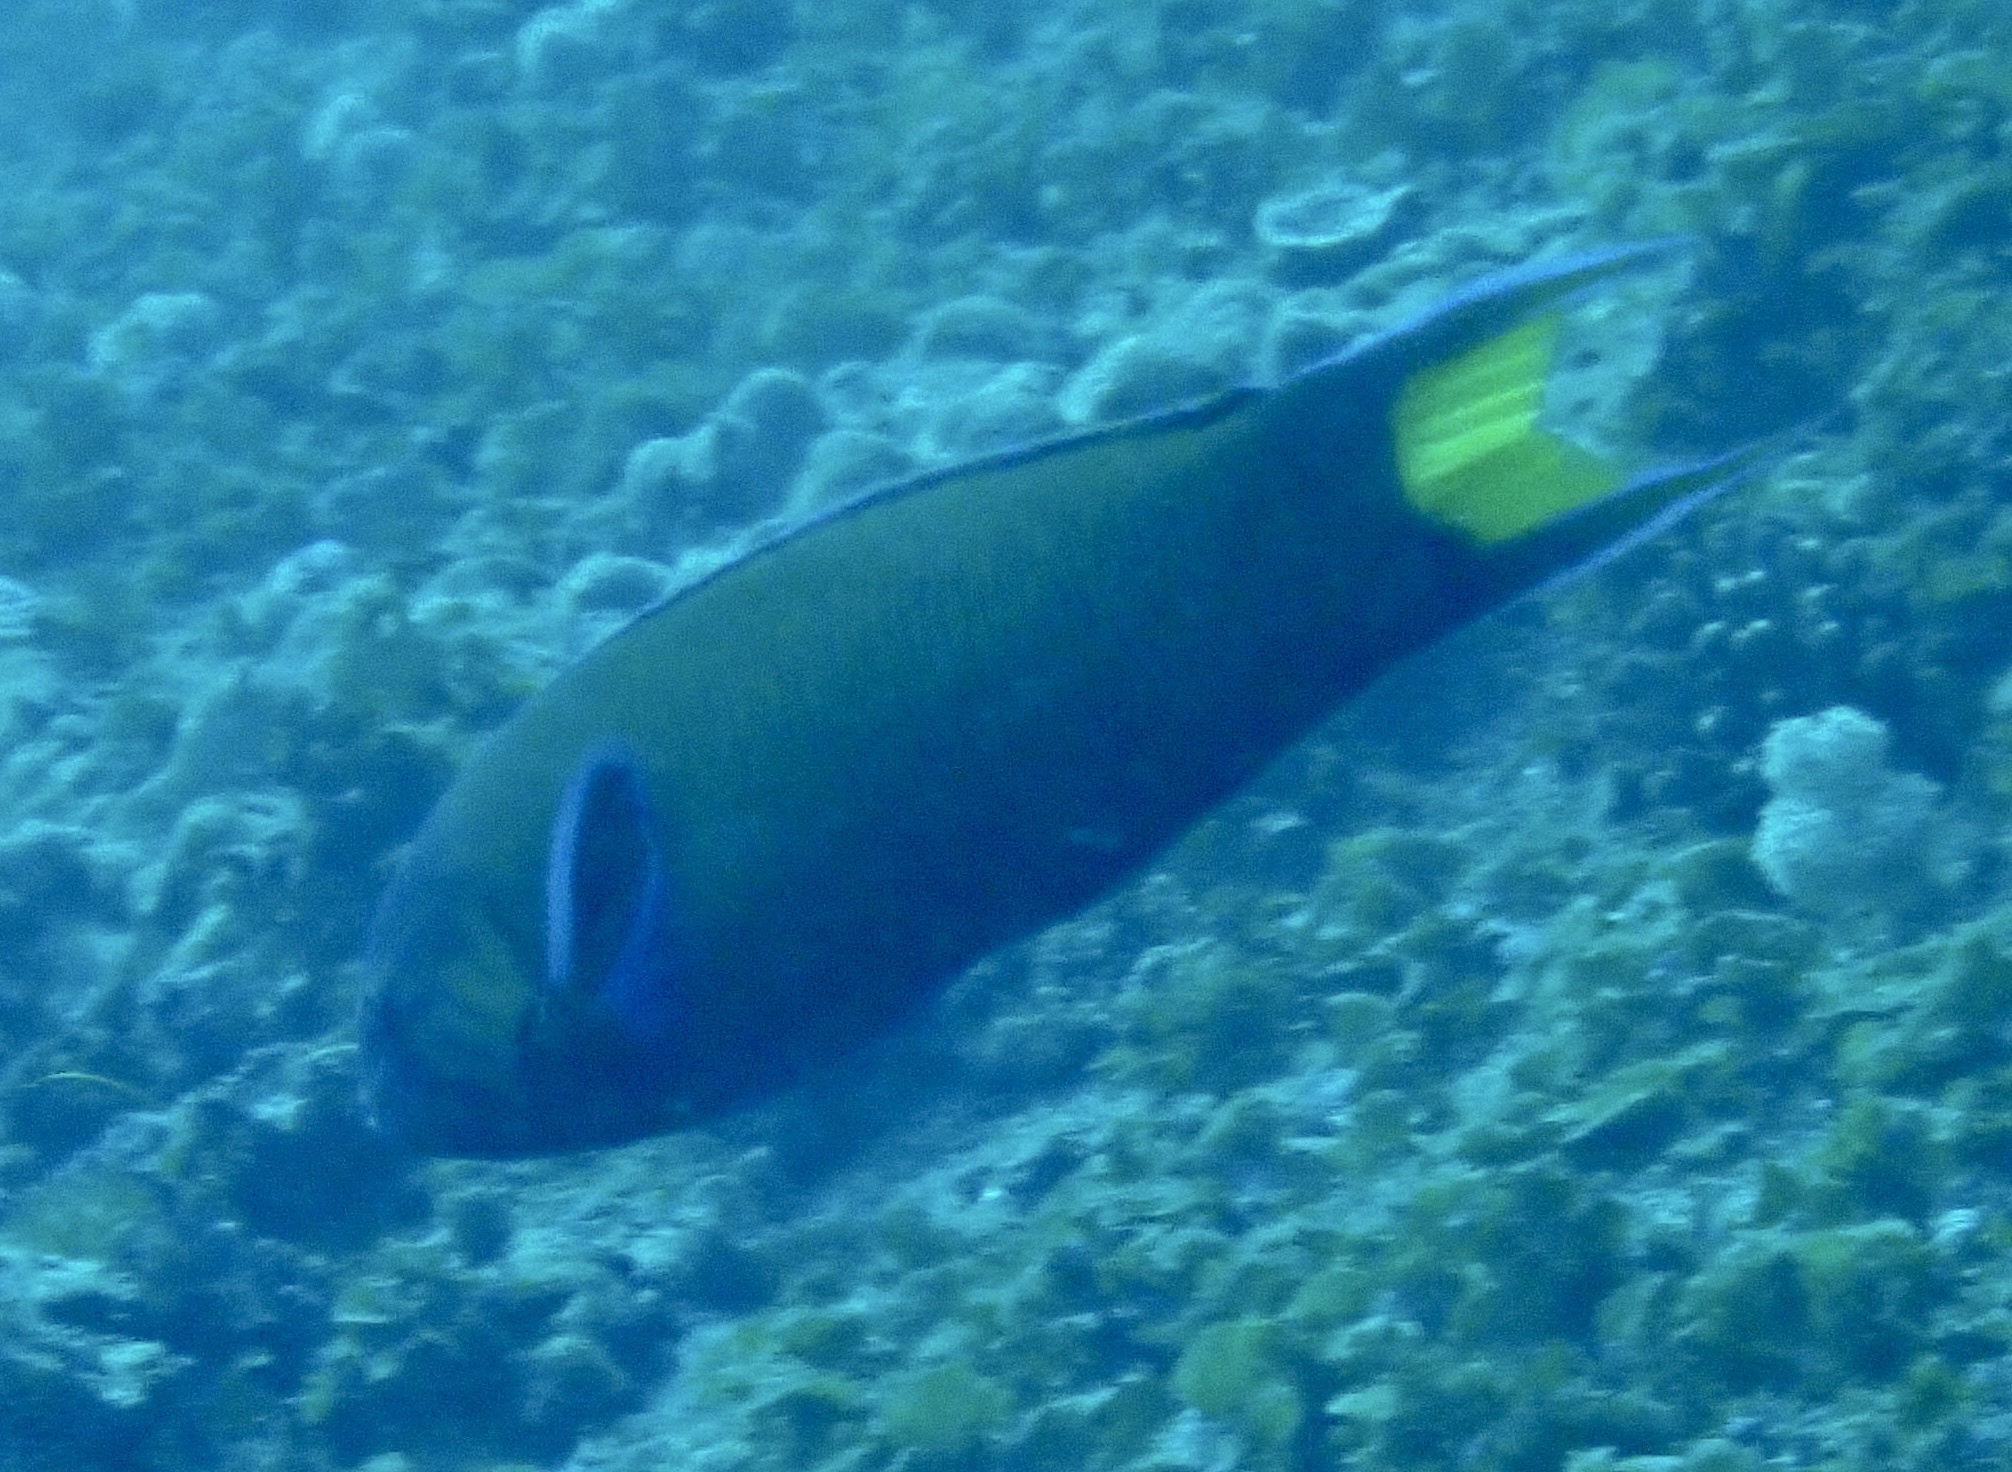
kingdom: Animalia
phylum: Chordata
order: Perciformes
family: Labridae
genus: Thalassoma
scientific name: Thalassoma lunare
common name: Blue wrasse
